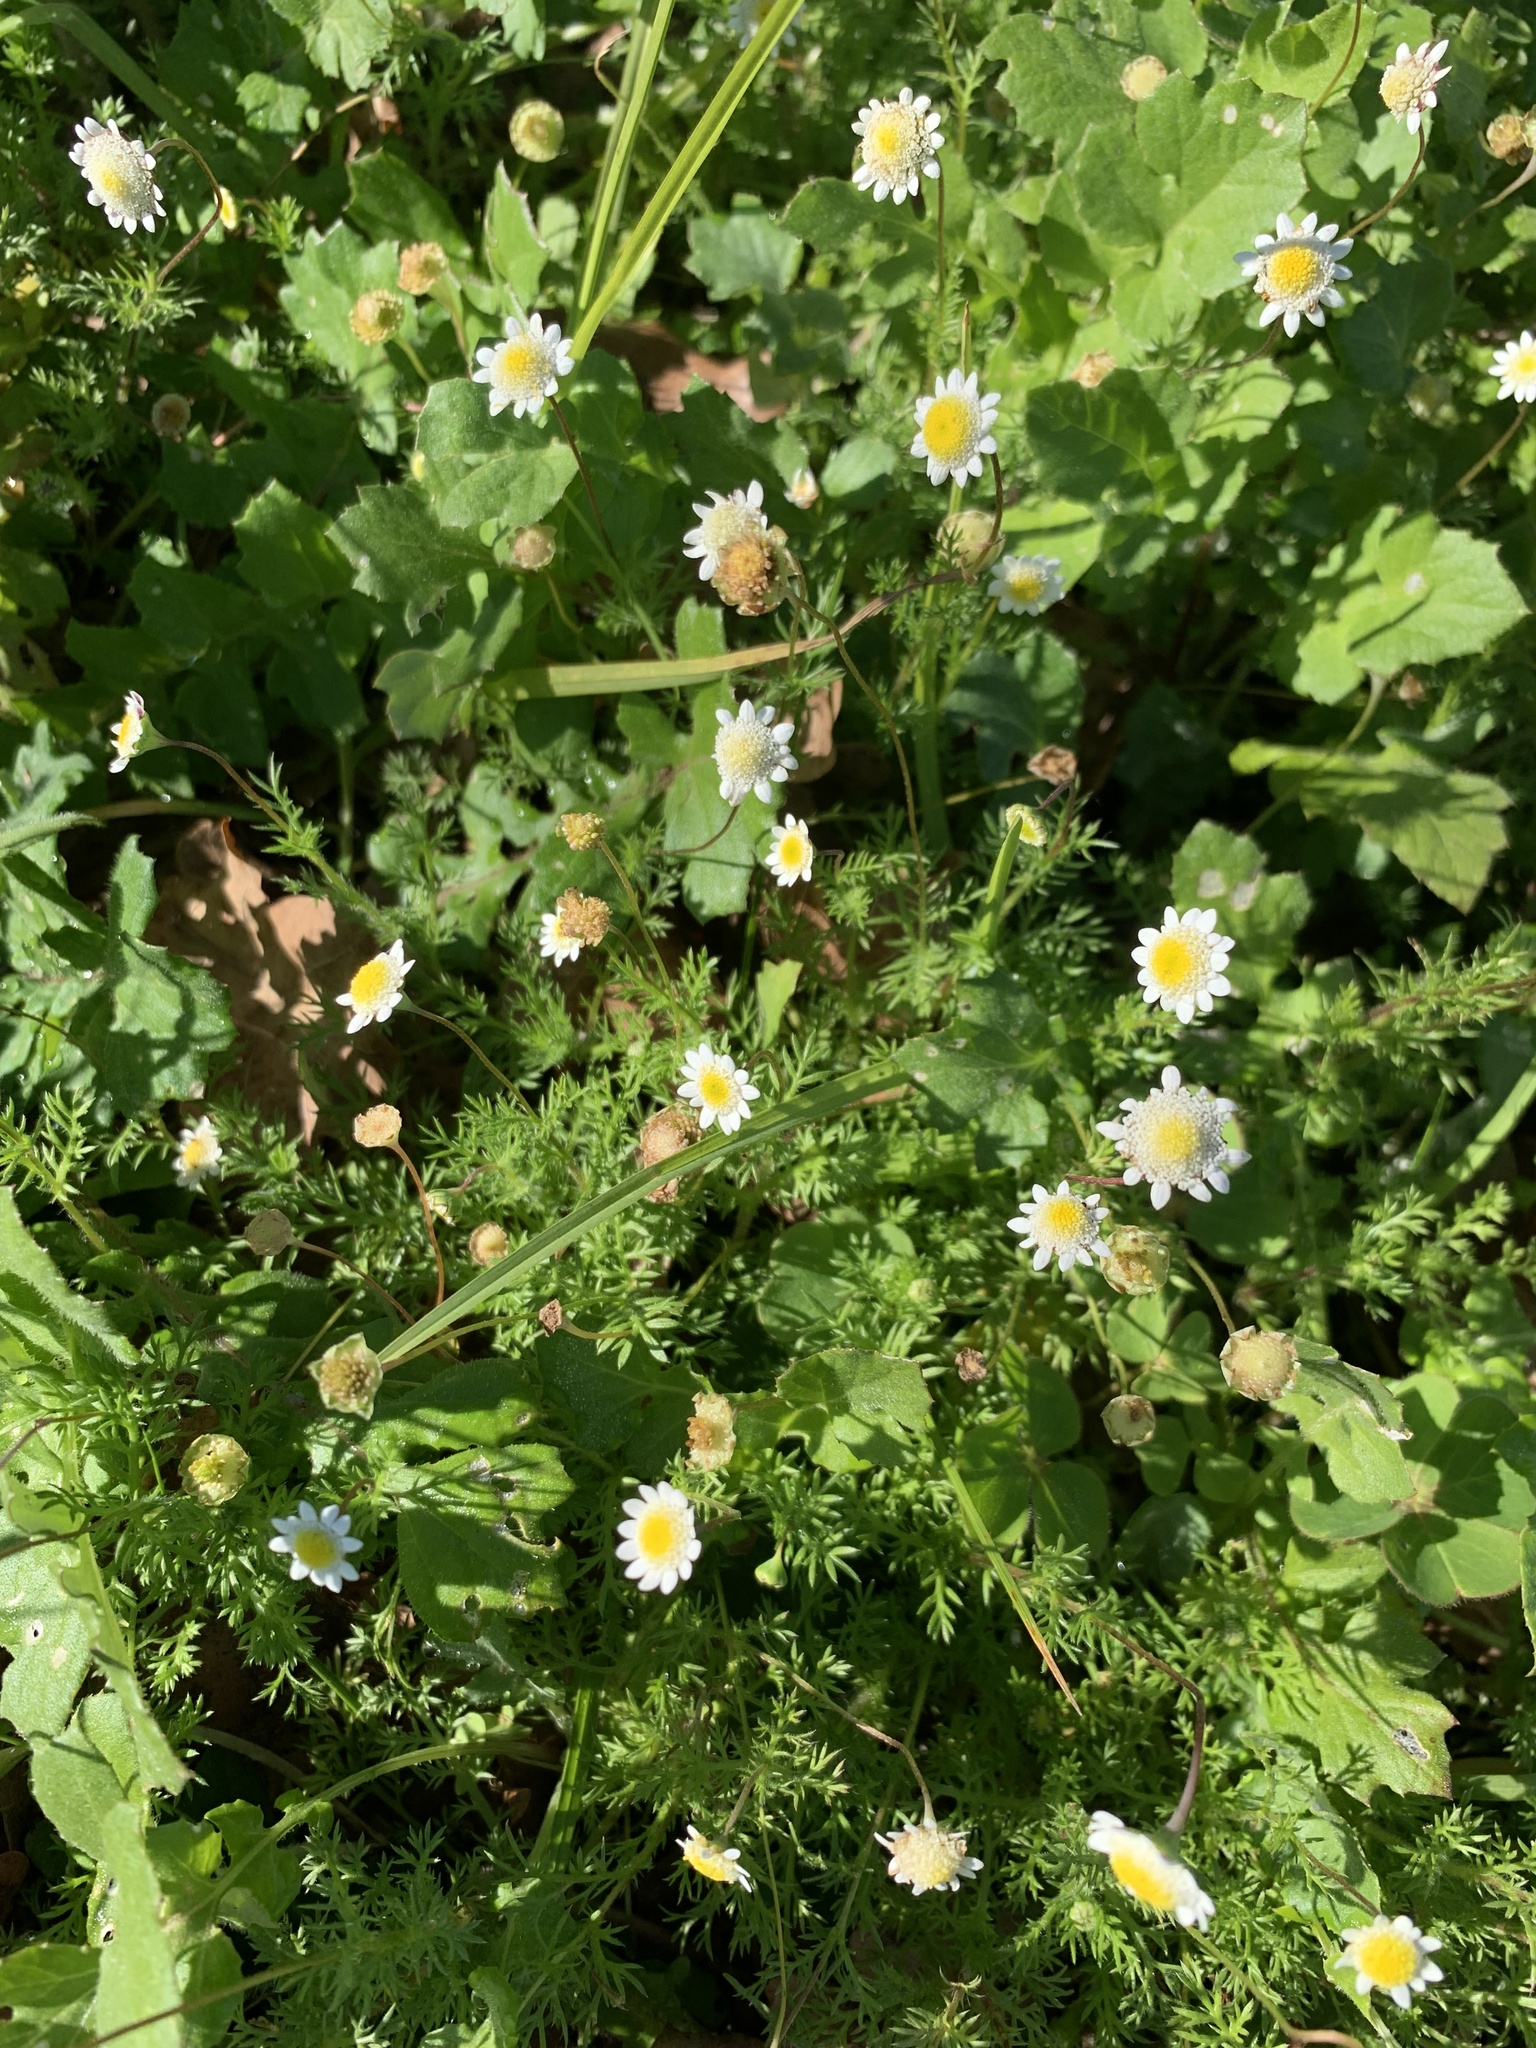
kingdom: Plantae
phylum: Tracheophyta
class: Magnoliopsida
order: Asterales
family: Asteraceae
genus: Cotula
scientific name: Cotula turbinata
